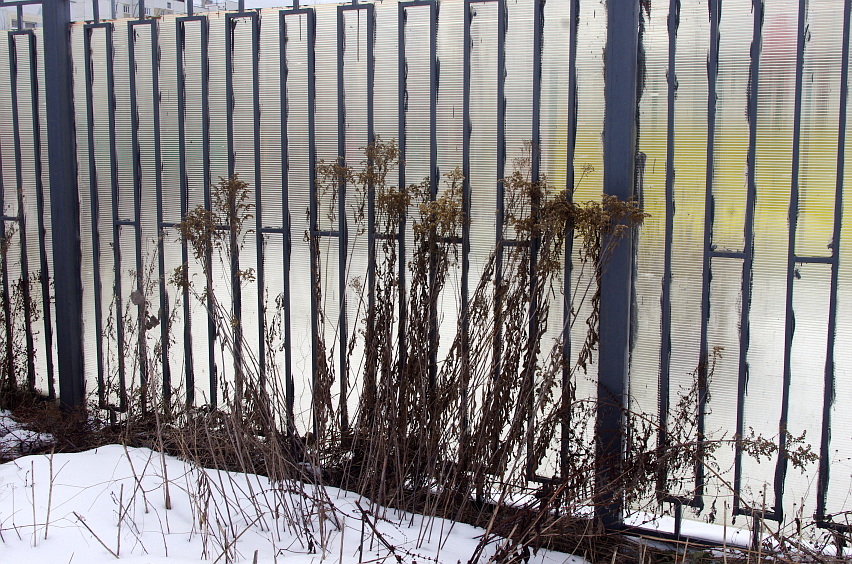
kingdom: Plantae
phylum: Tracheophyta
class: Magnoliopsida
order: Asterales
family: Asteraceae
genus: Solidago
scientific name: Solidago gigantea
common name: Giant goldenrod
